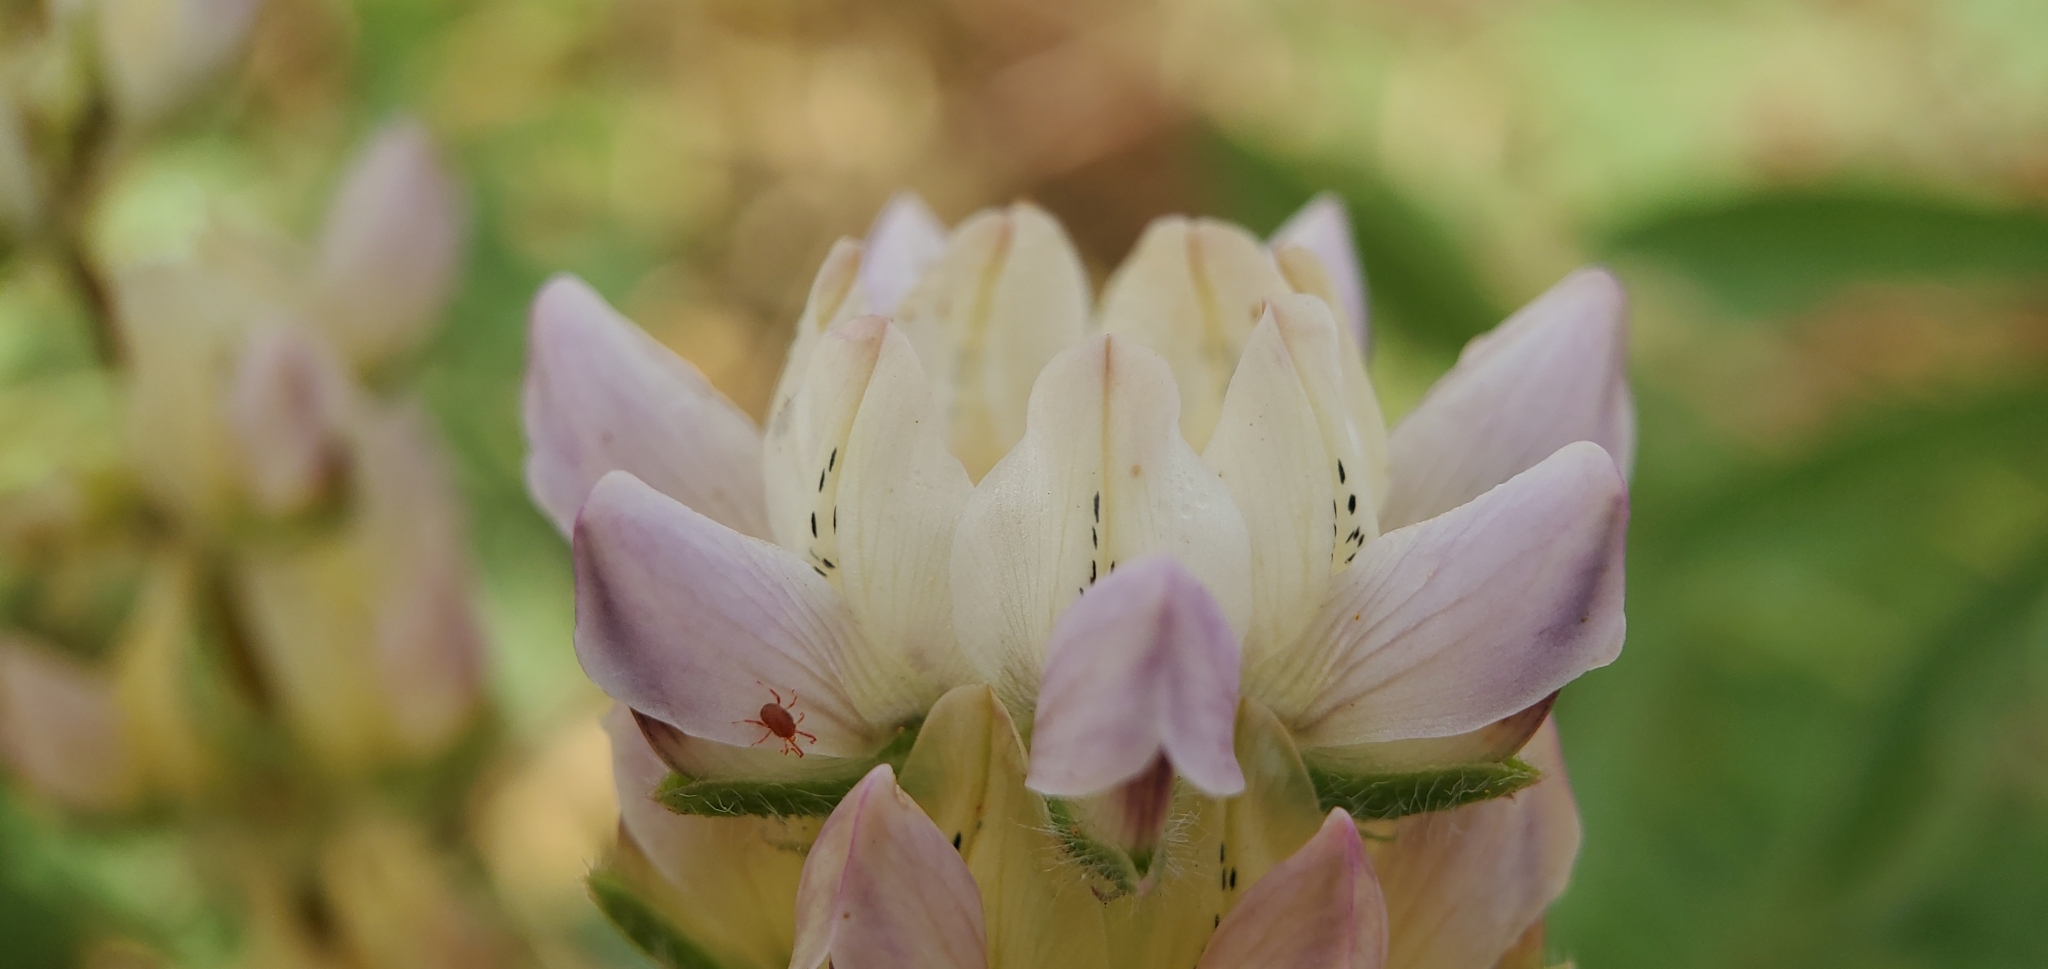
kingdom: Plantae
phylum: Tracheophyta
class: Magnoliopsida
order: Fabales
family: Fabaceae
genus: Lupinus
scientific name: Lupinus microcarpus
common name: Chick lupine
